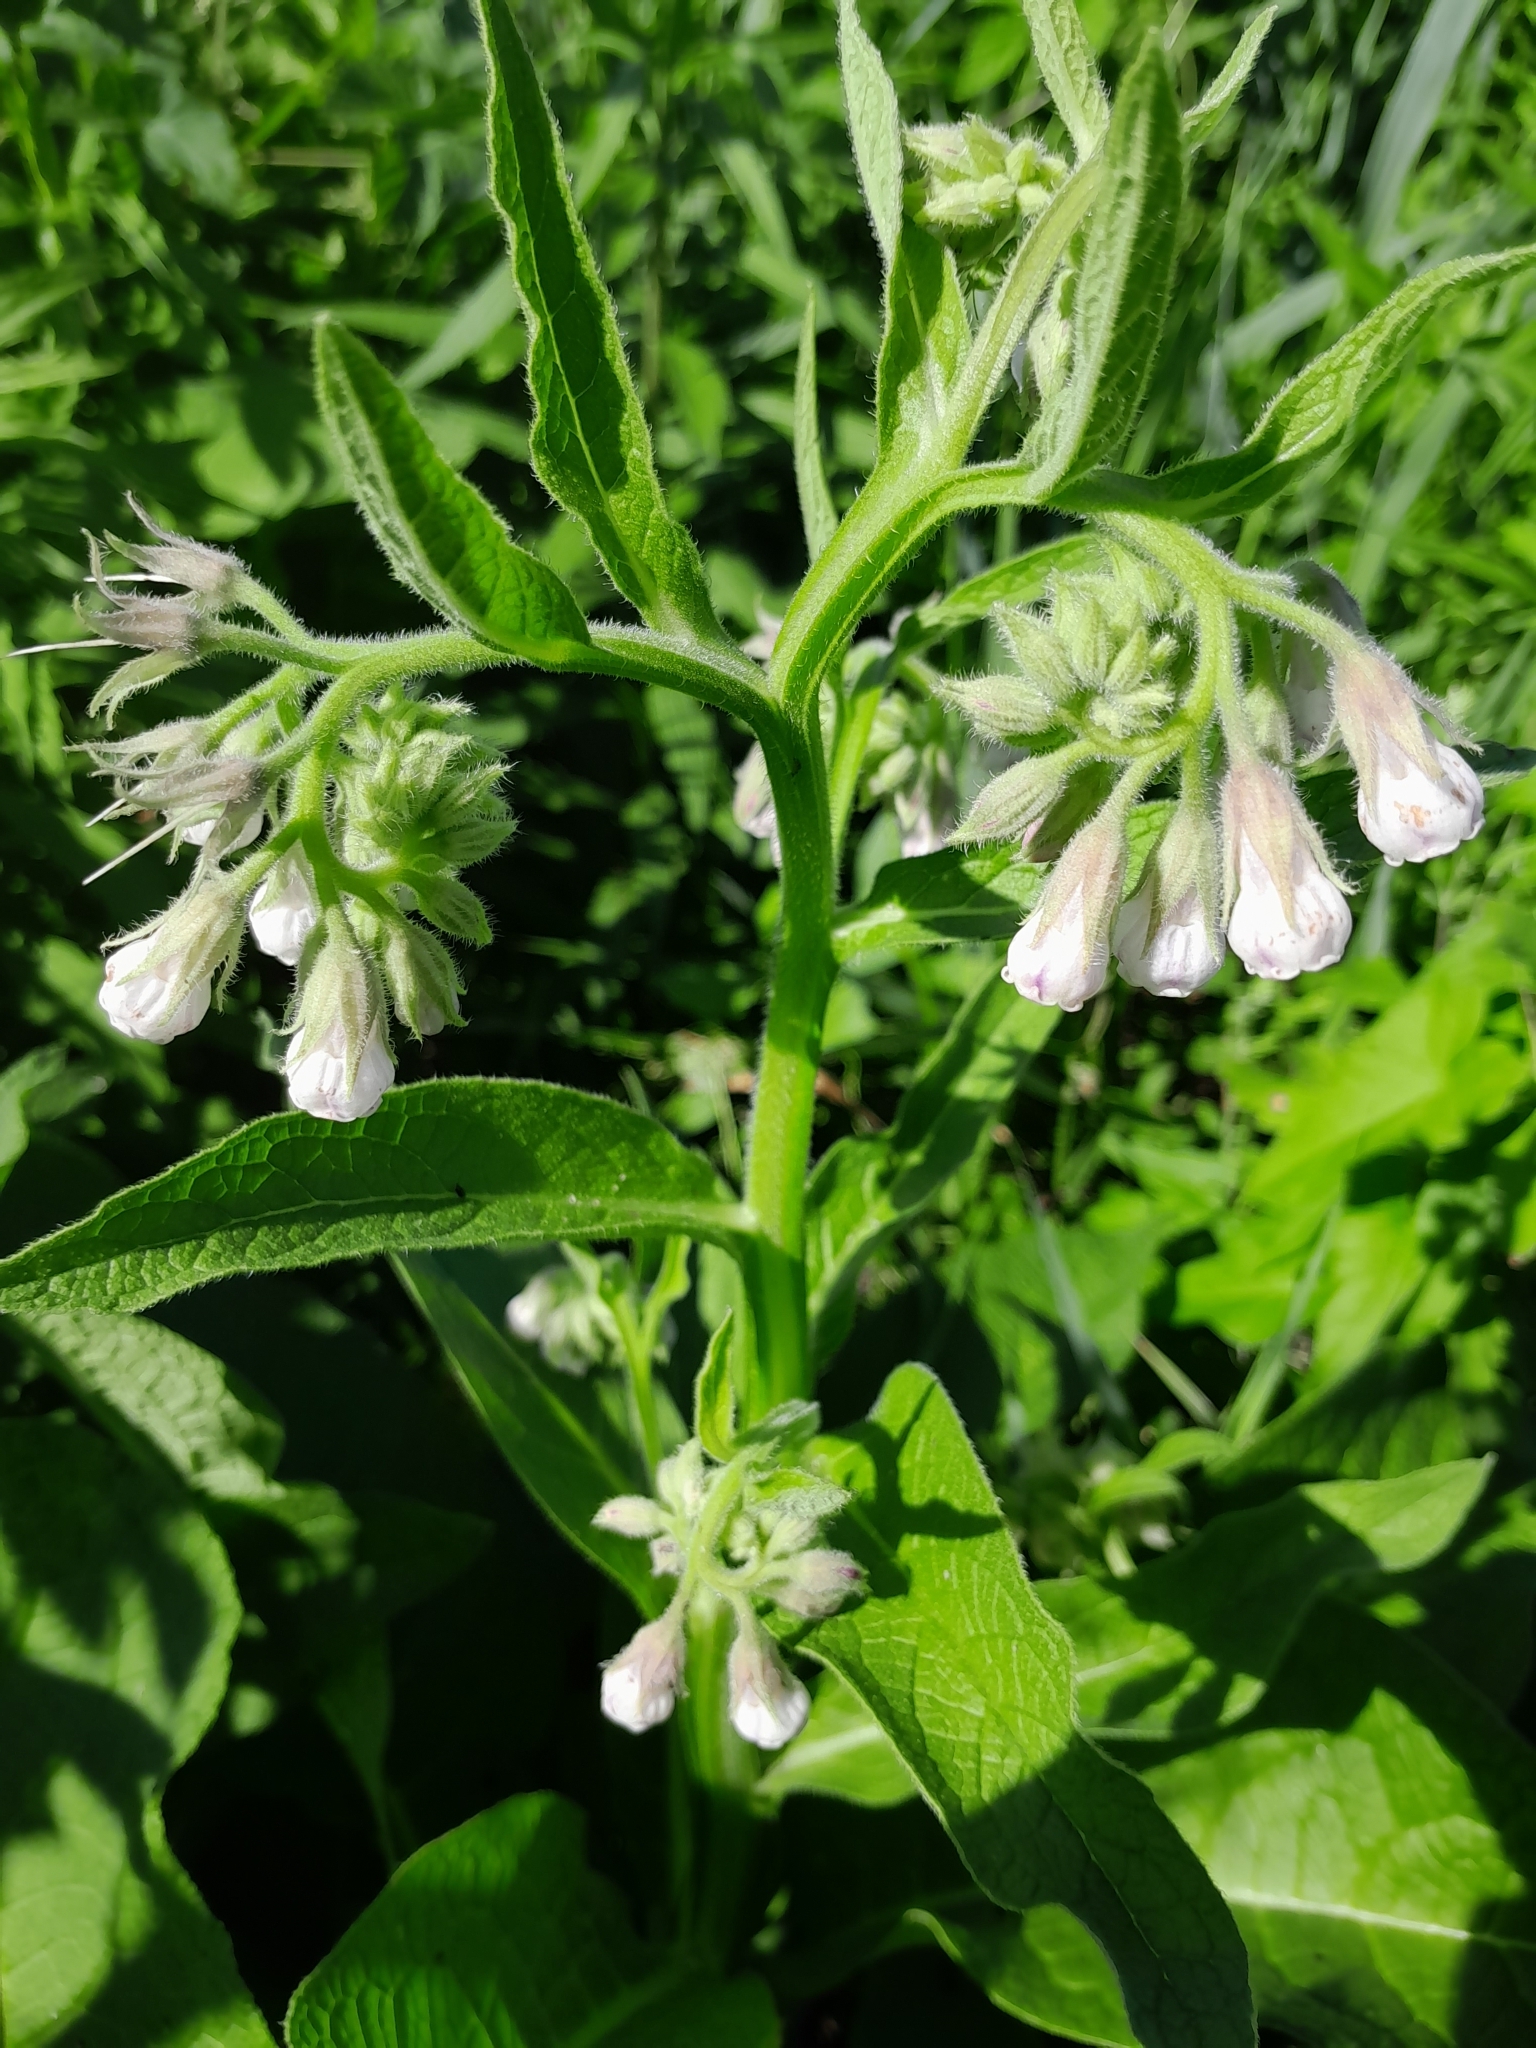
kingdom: Plantae
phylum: Tracheophyta
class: Magnoliopsida
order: Boraginales
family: Boraginaceae
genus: Symphytum
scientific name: Symphytum officinale
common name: Common comfrey
